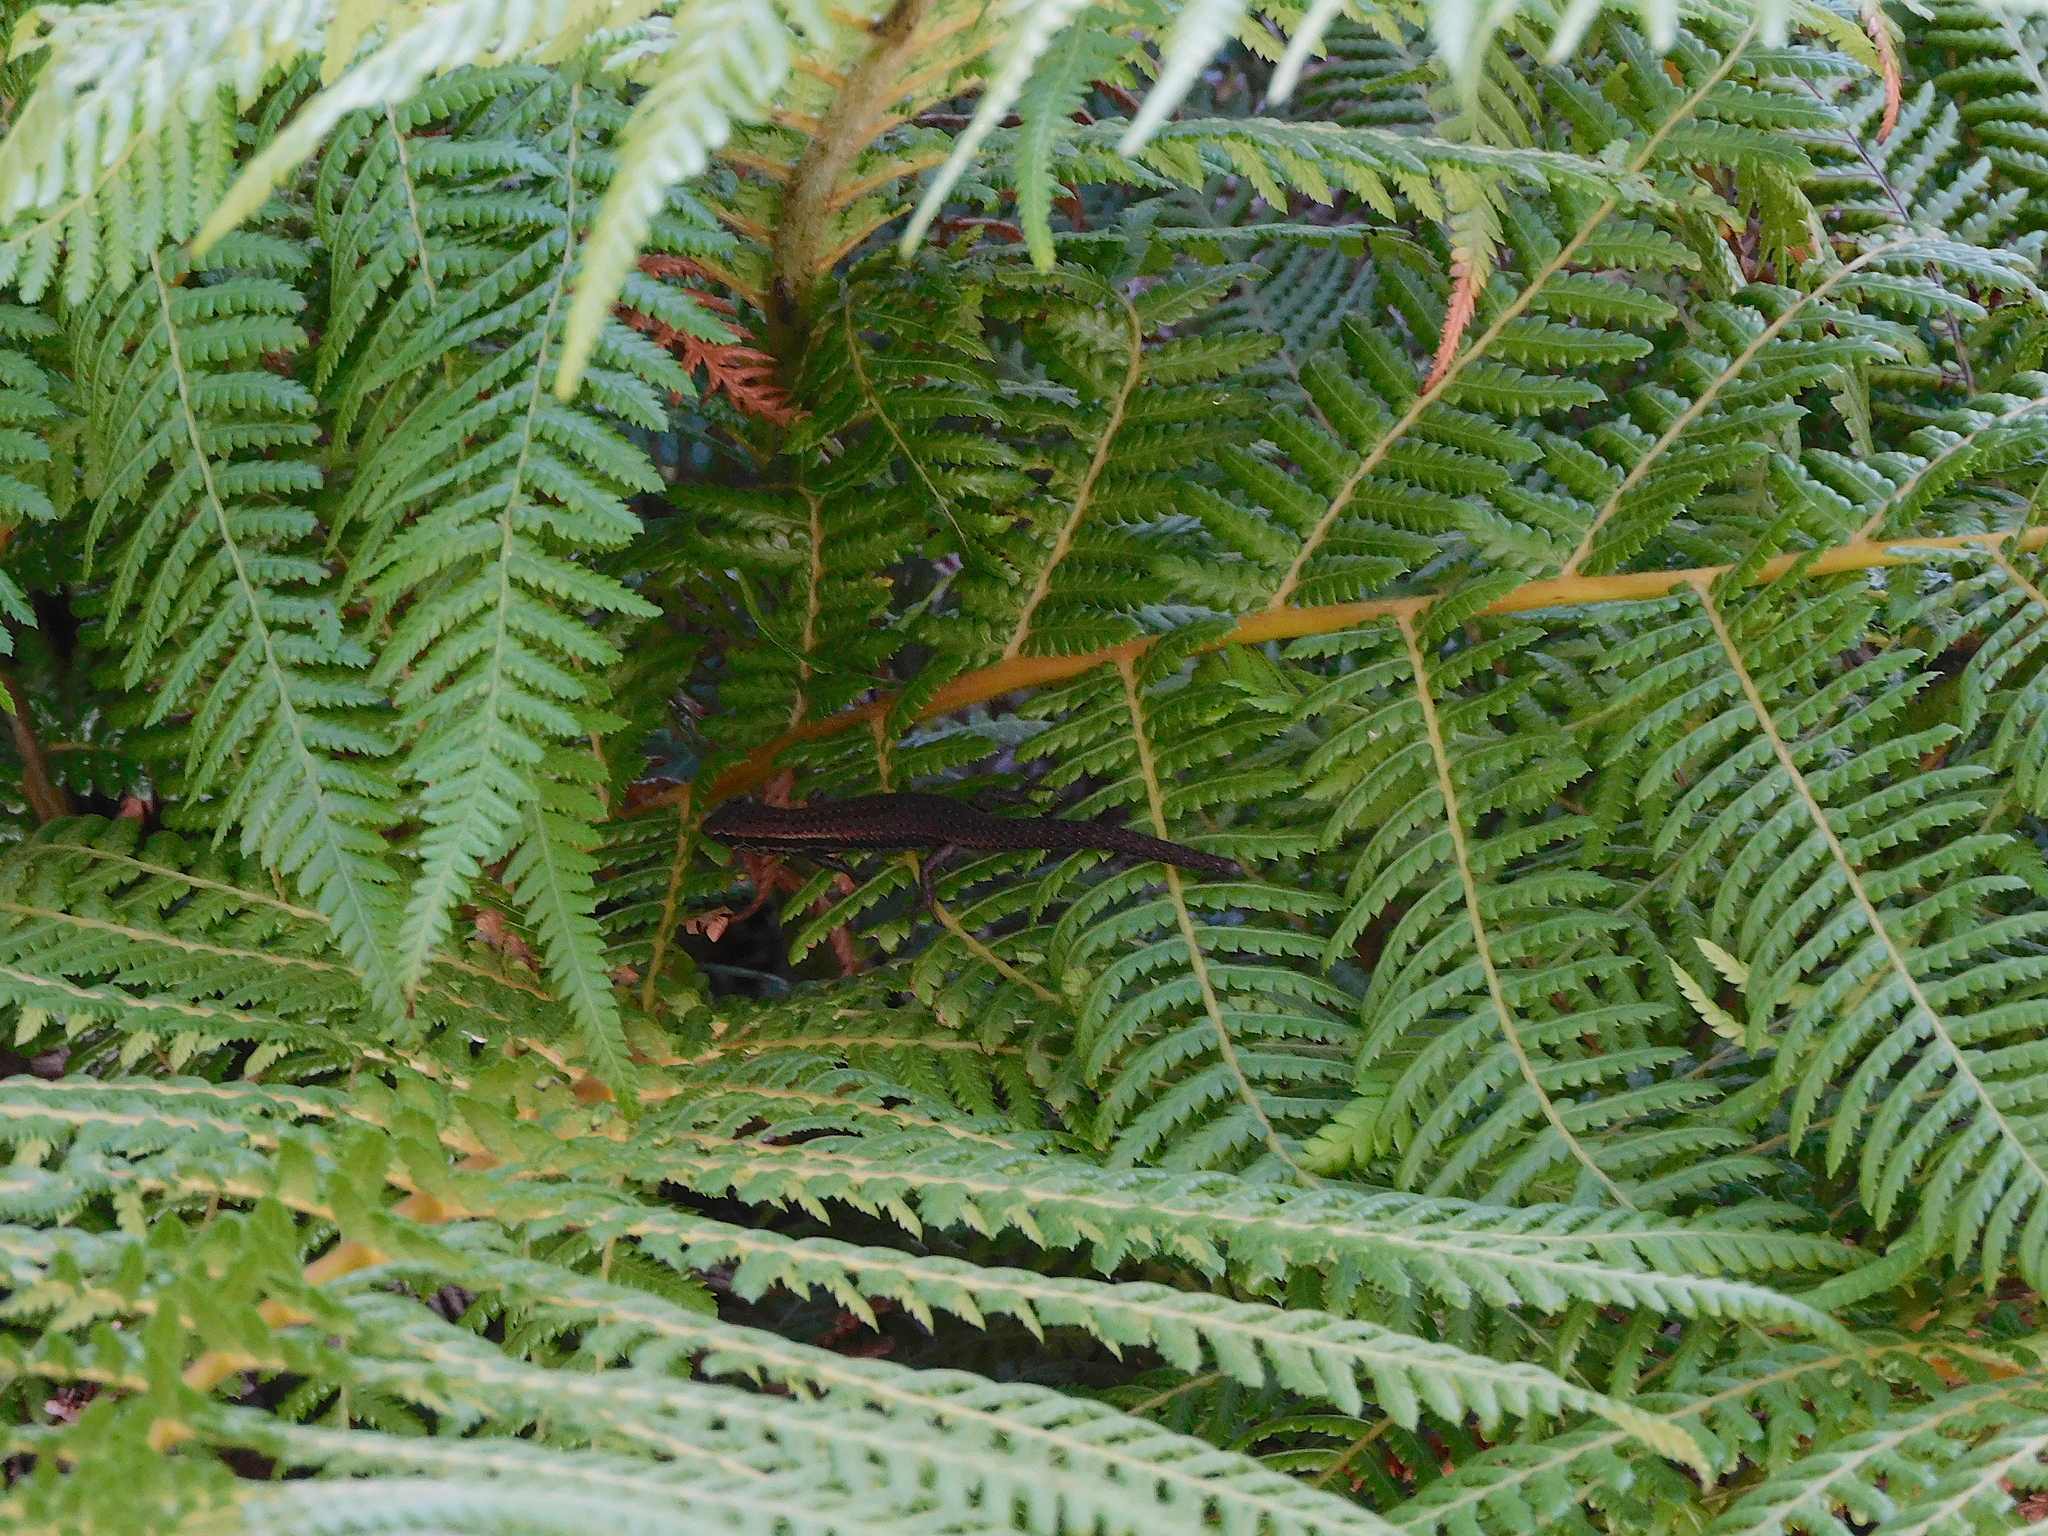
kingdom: Animalia
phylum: Chordata
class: Squamata
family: Scincidae
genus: Carinascincus
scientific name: Carinascincus metallicus
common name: Metallic cool-skink
